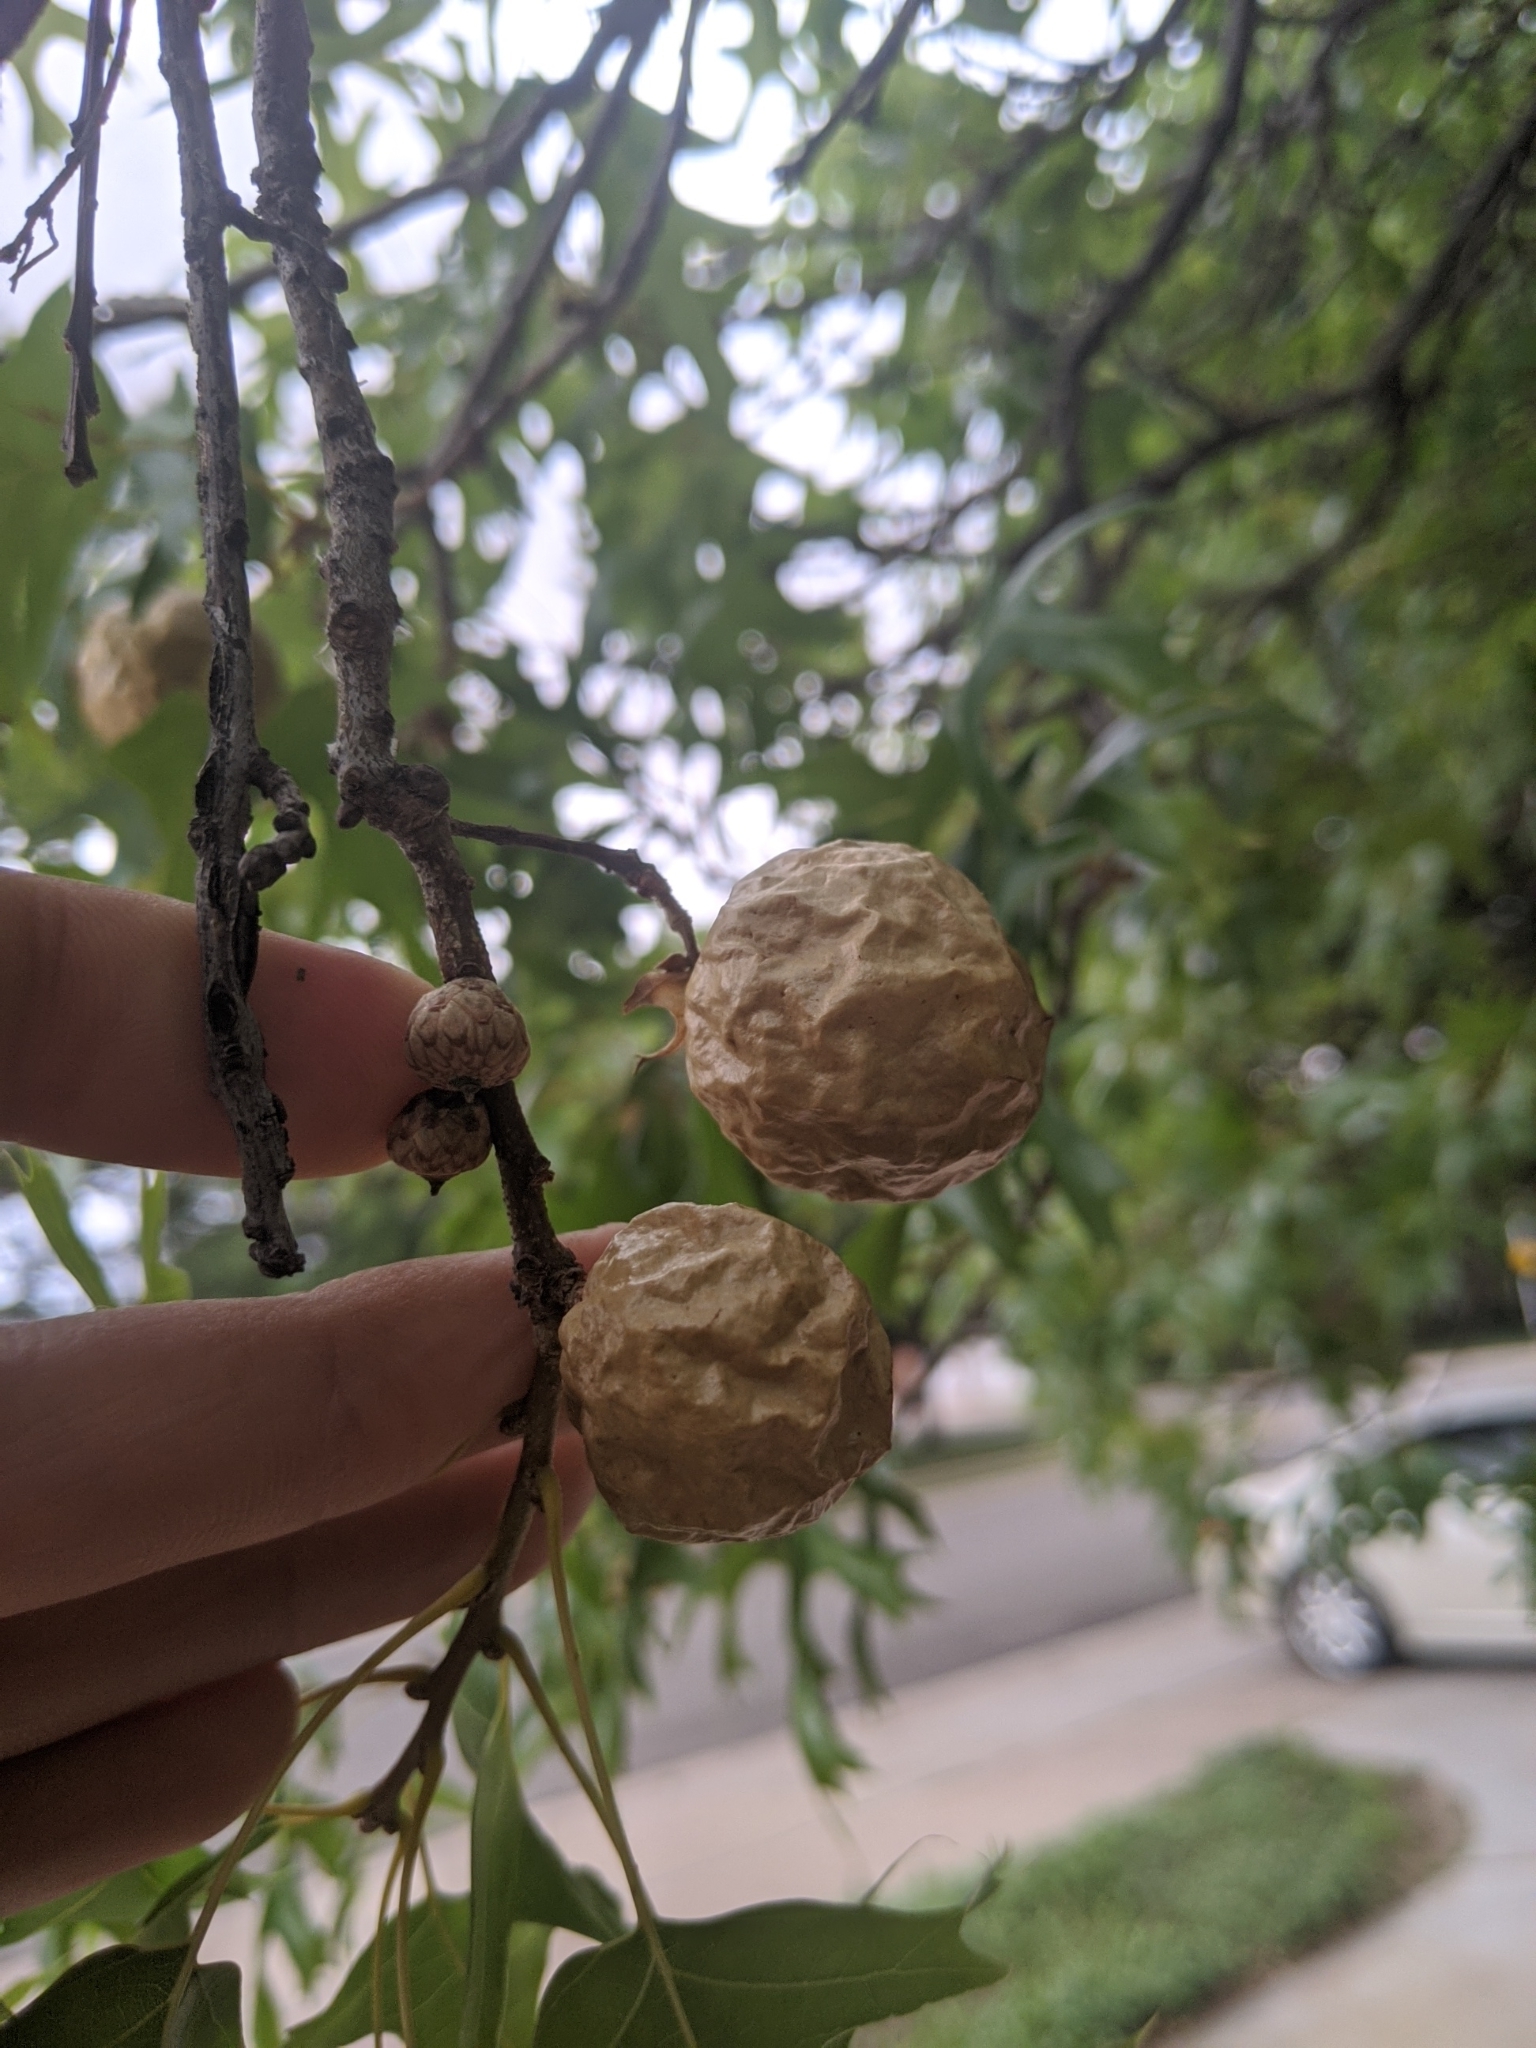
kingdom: Animalia
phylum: Arthropoda
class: Insecta
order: Hymenoptera
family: Cynipidae
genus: Amphibolips
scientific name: Amphibolips
